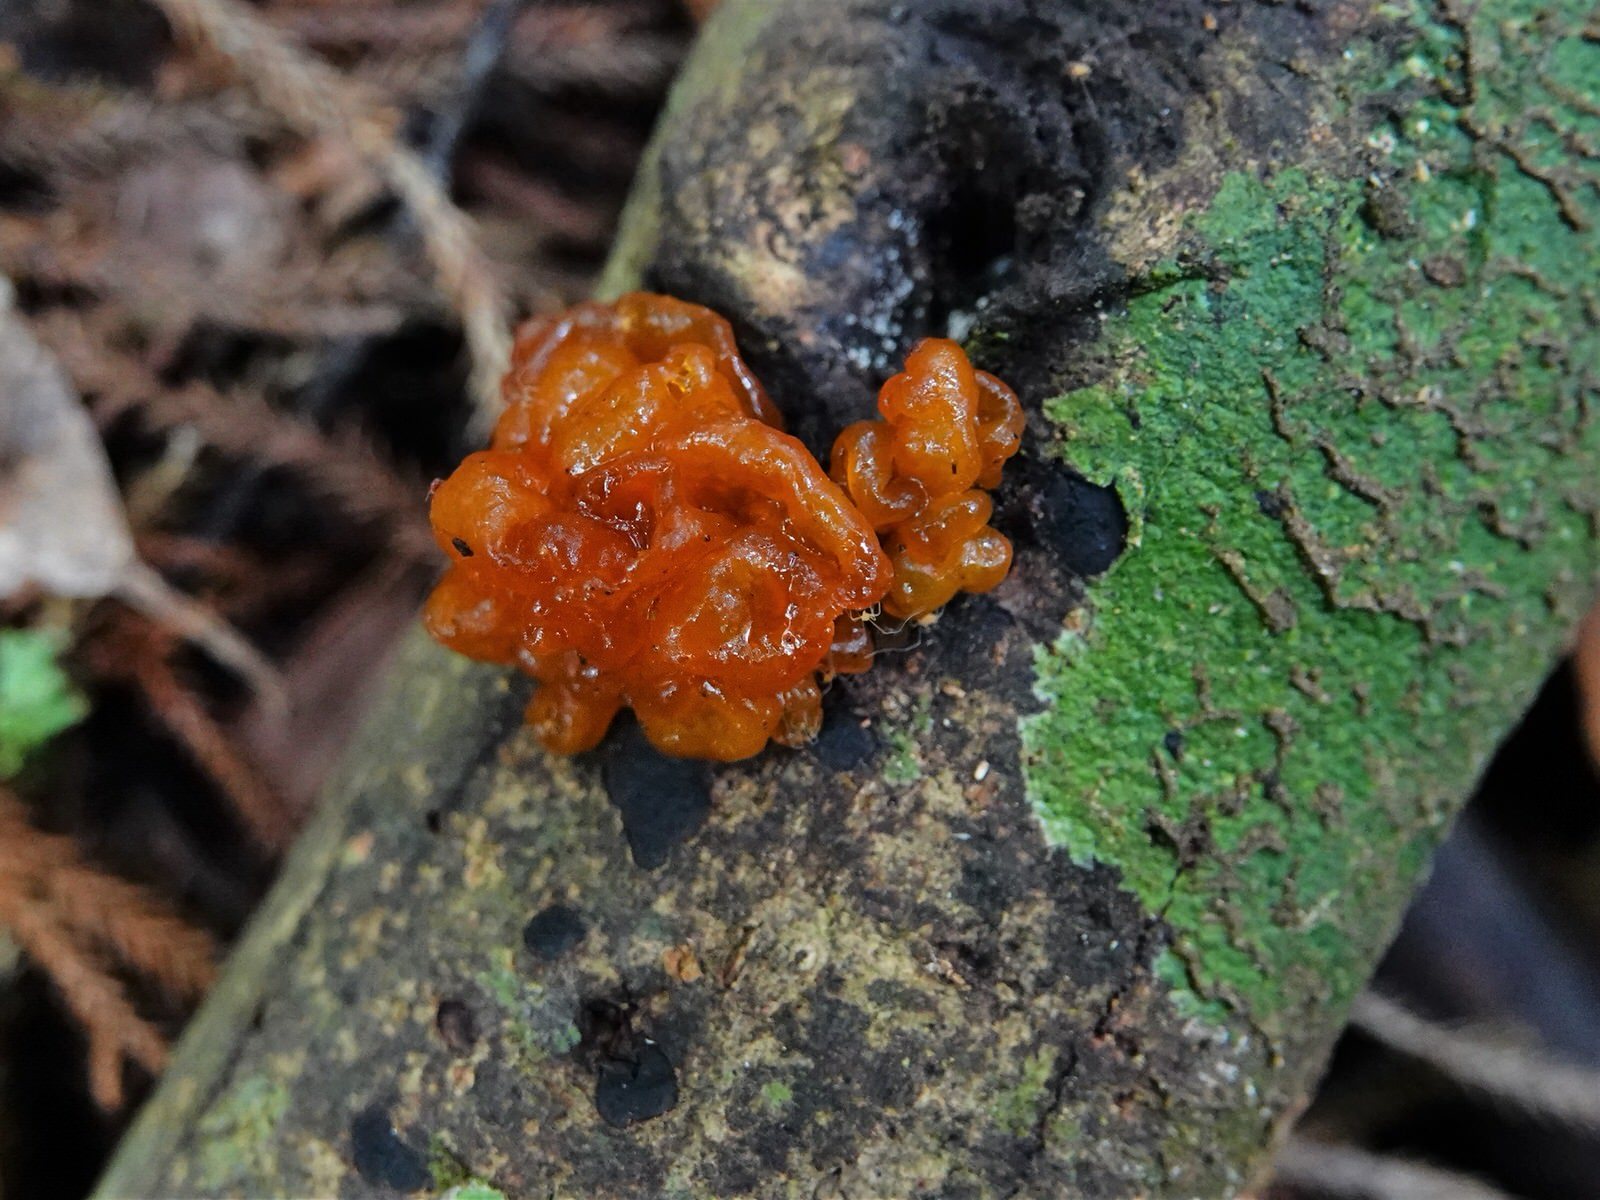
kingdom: Fungi
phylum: Basidiomycota
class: Tremellomycetes
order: Tremellales
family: Tremellaceae
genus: Tremella
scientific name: Tremella vesiculosa
